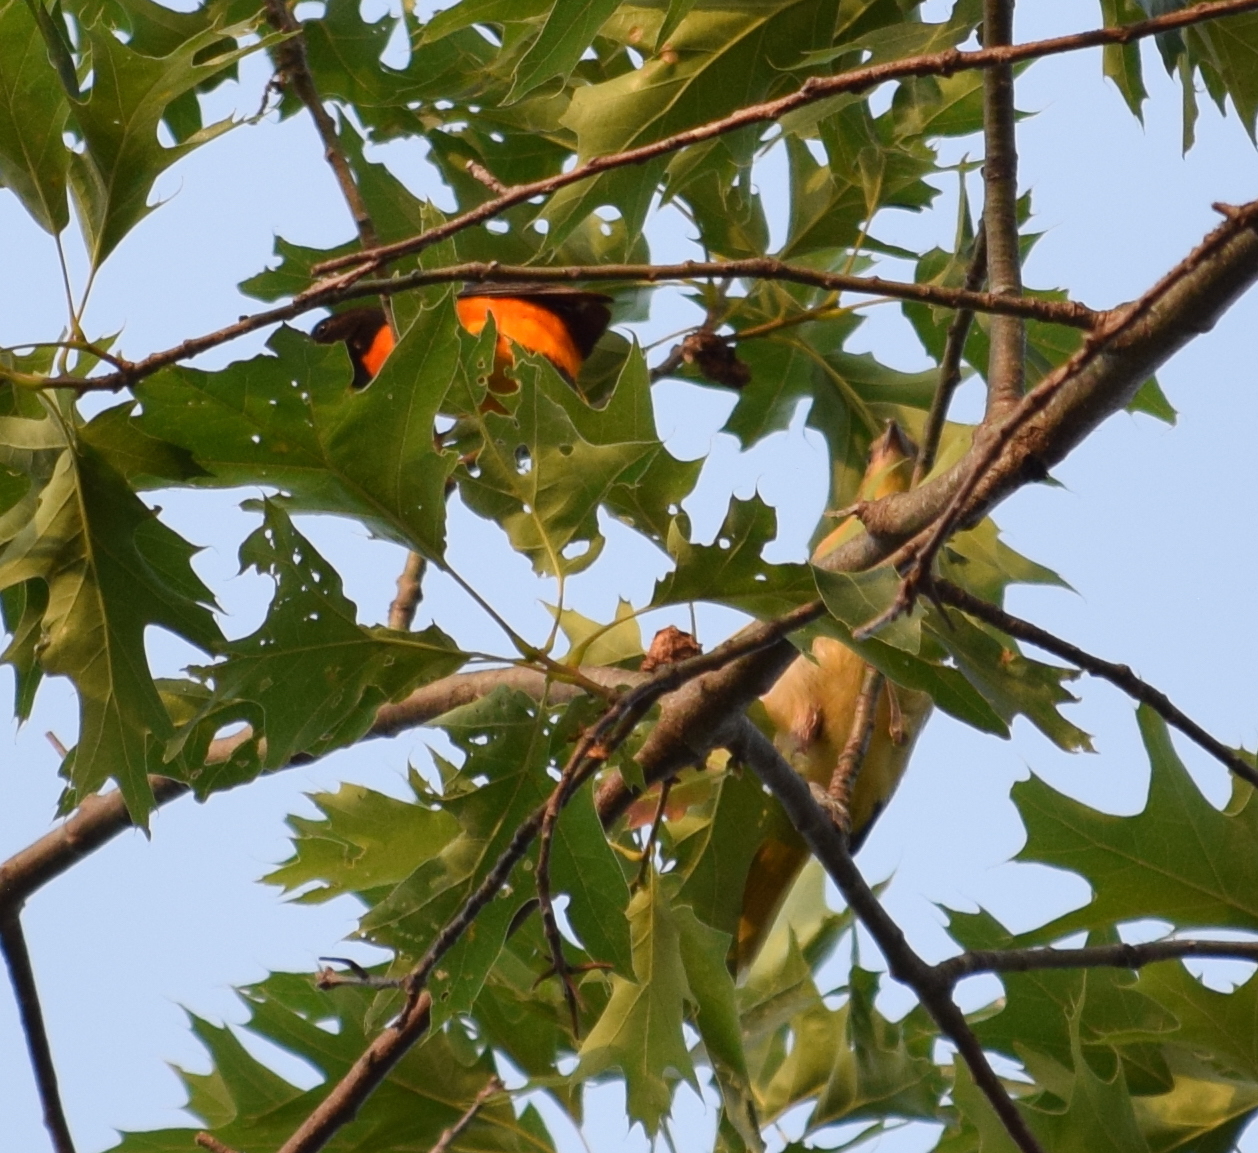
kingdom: Animalia
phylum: Chordata
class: Aves
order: Passeriformes
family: Icteridae
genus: Icterus
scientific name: Icterus galbula
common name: Baltimore oriole
